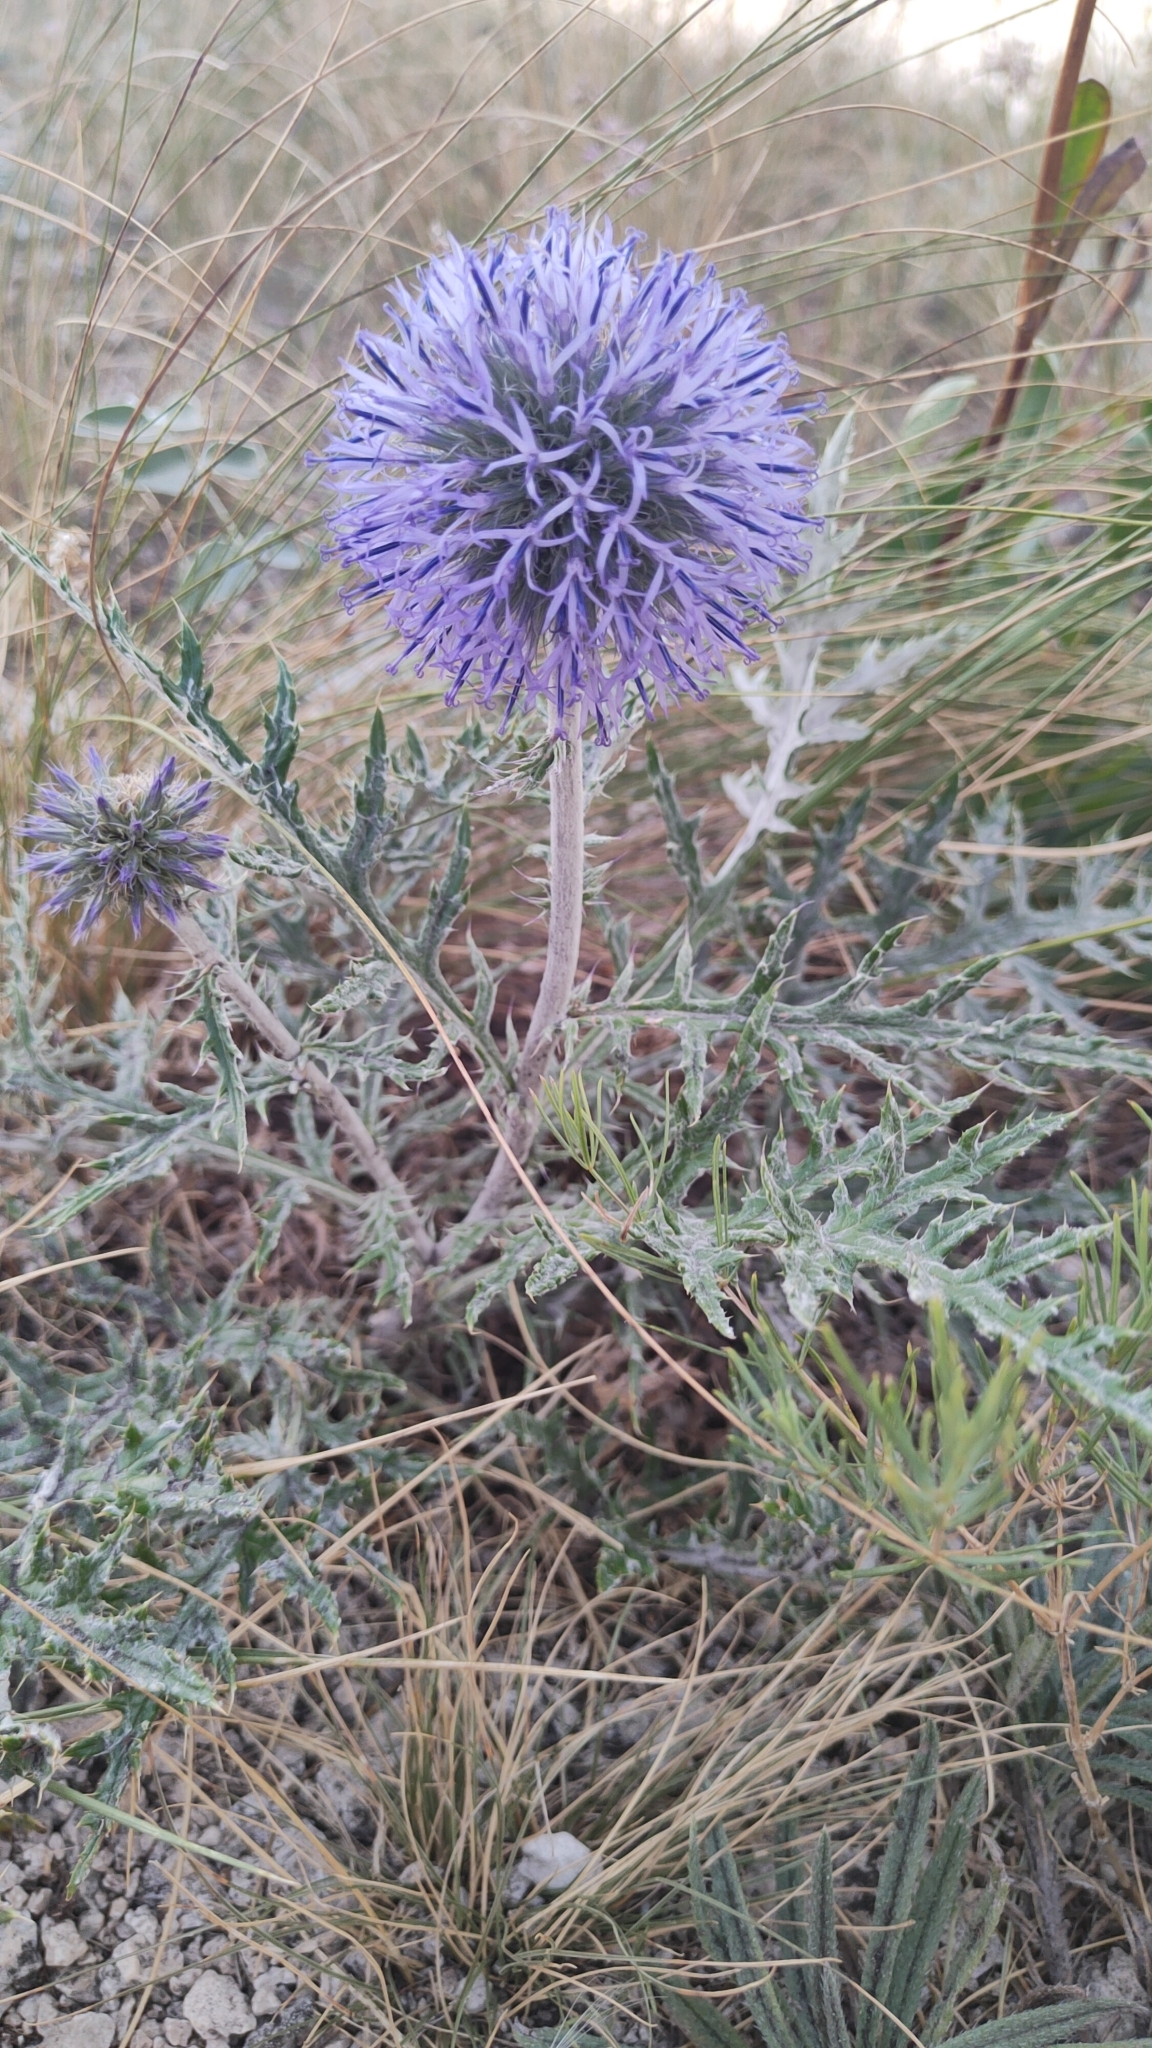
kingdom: Plantae
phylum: Tracheophyta
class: Magnoliopsida
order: Asterales
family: Asteraceae
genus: Echinops
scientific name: Echinops ritro
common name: Globe thistle
